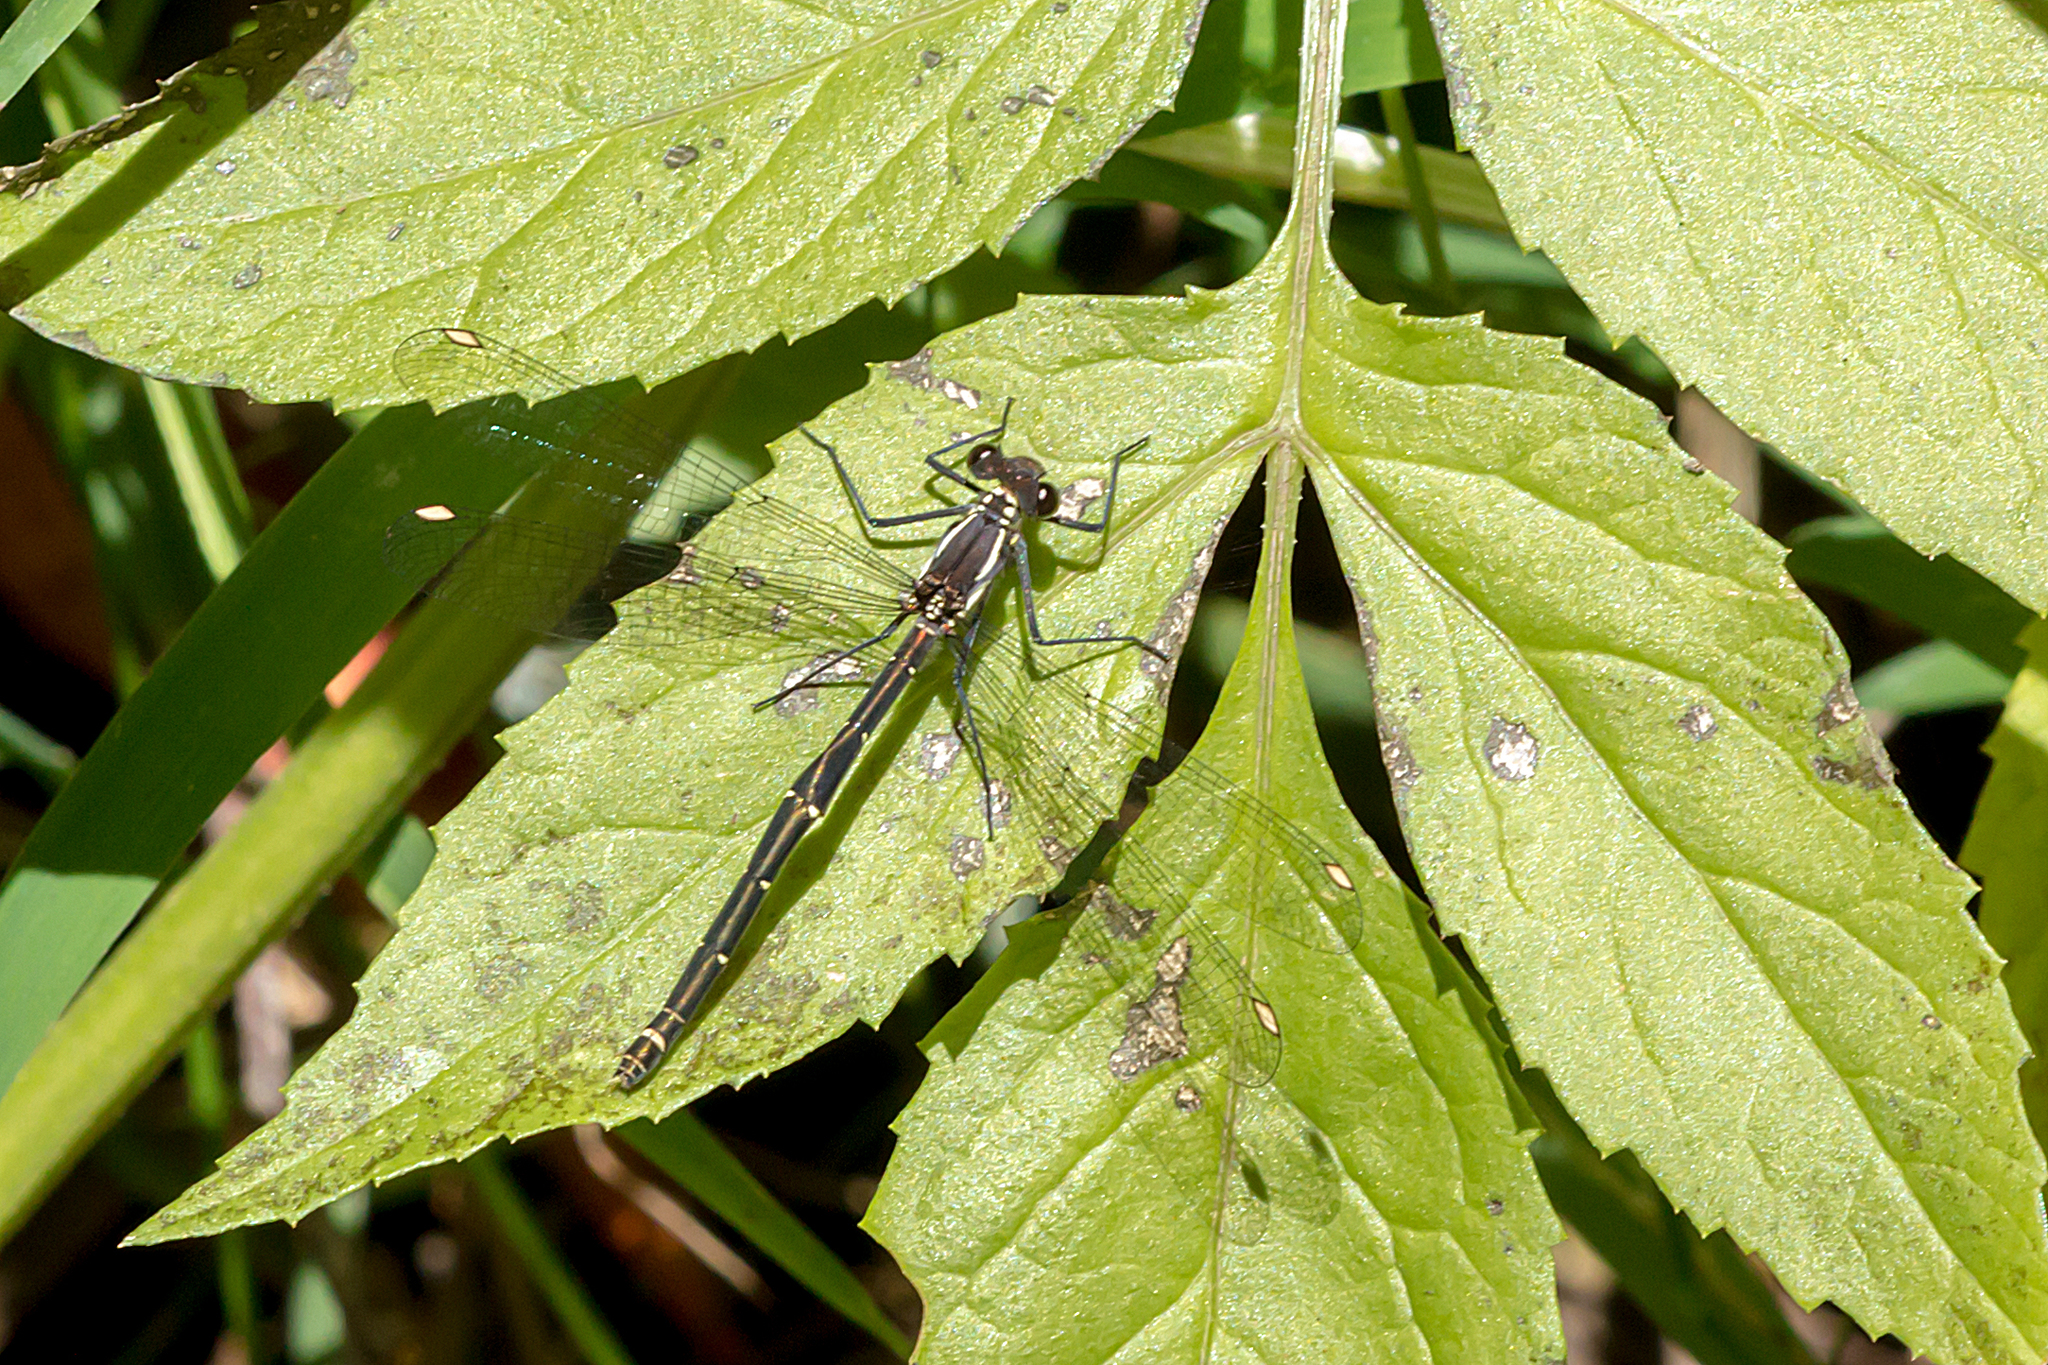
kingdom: Animalia
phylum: Arthropoda
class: Insecta
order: Odonata
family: Argiolestidae
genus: Austroargiolestes
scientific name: Austroargiolestes calcaris
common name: Powdered flatwing
